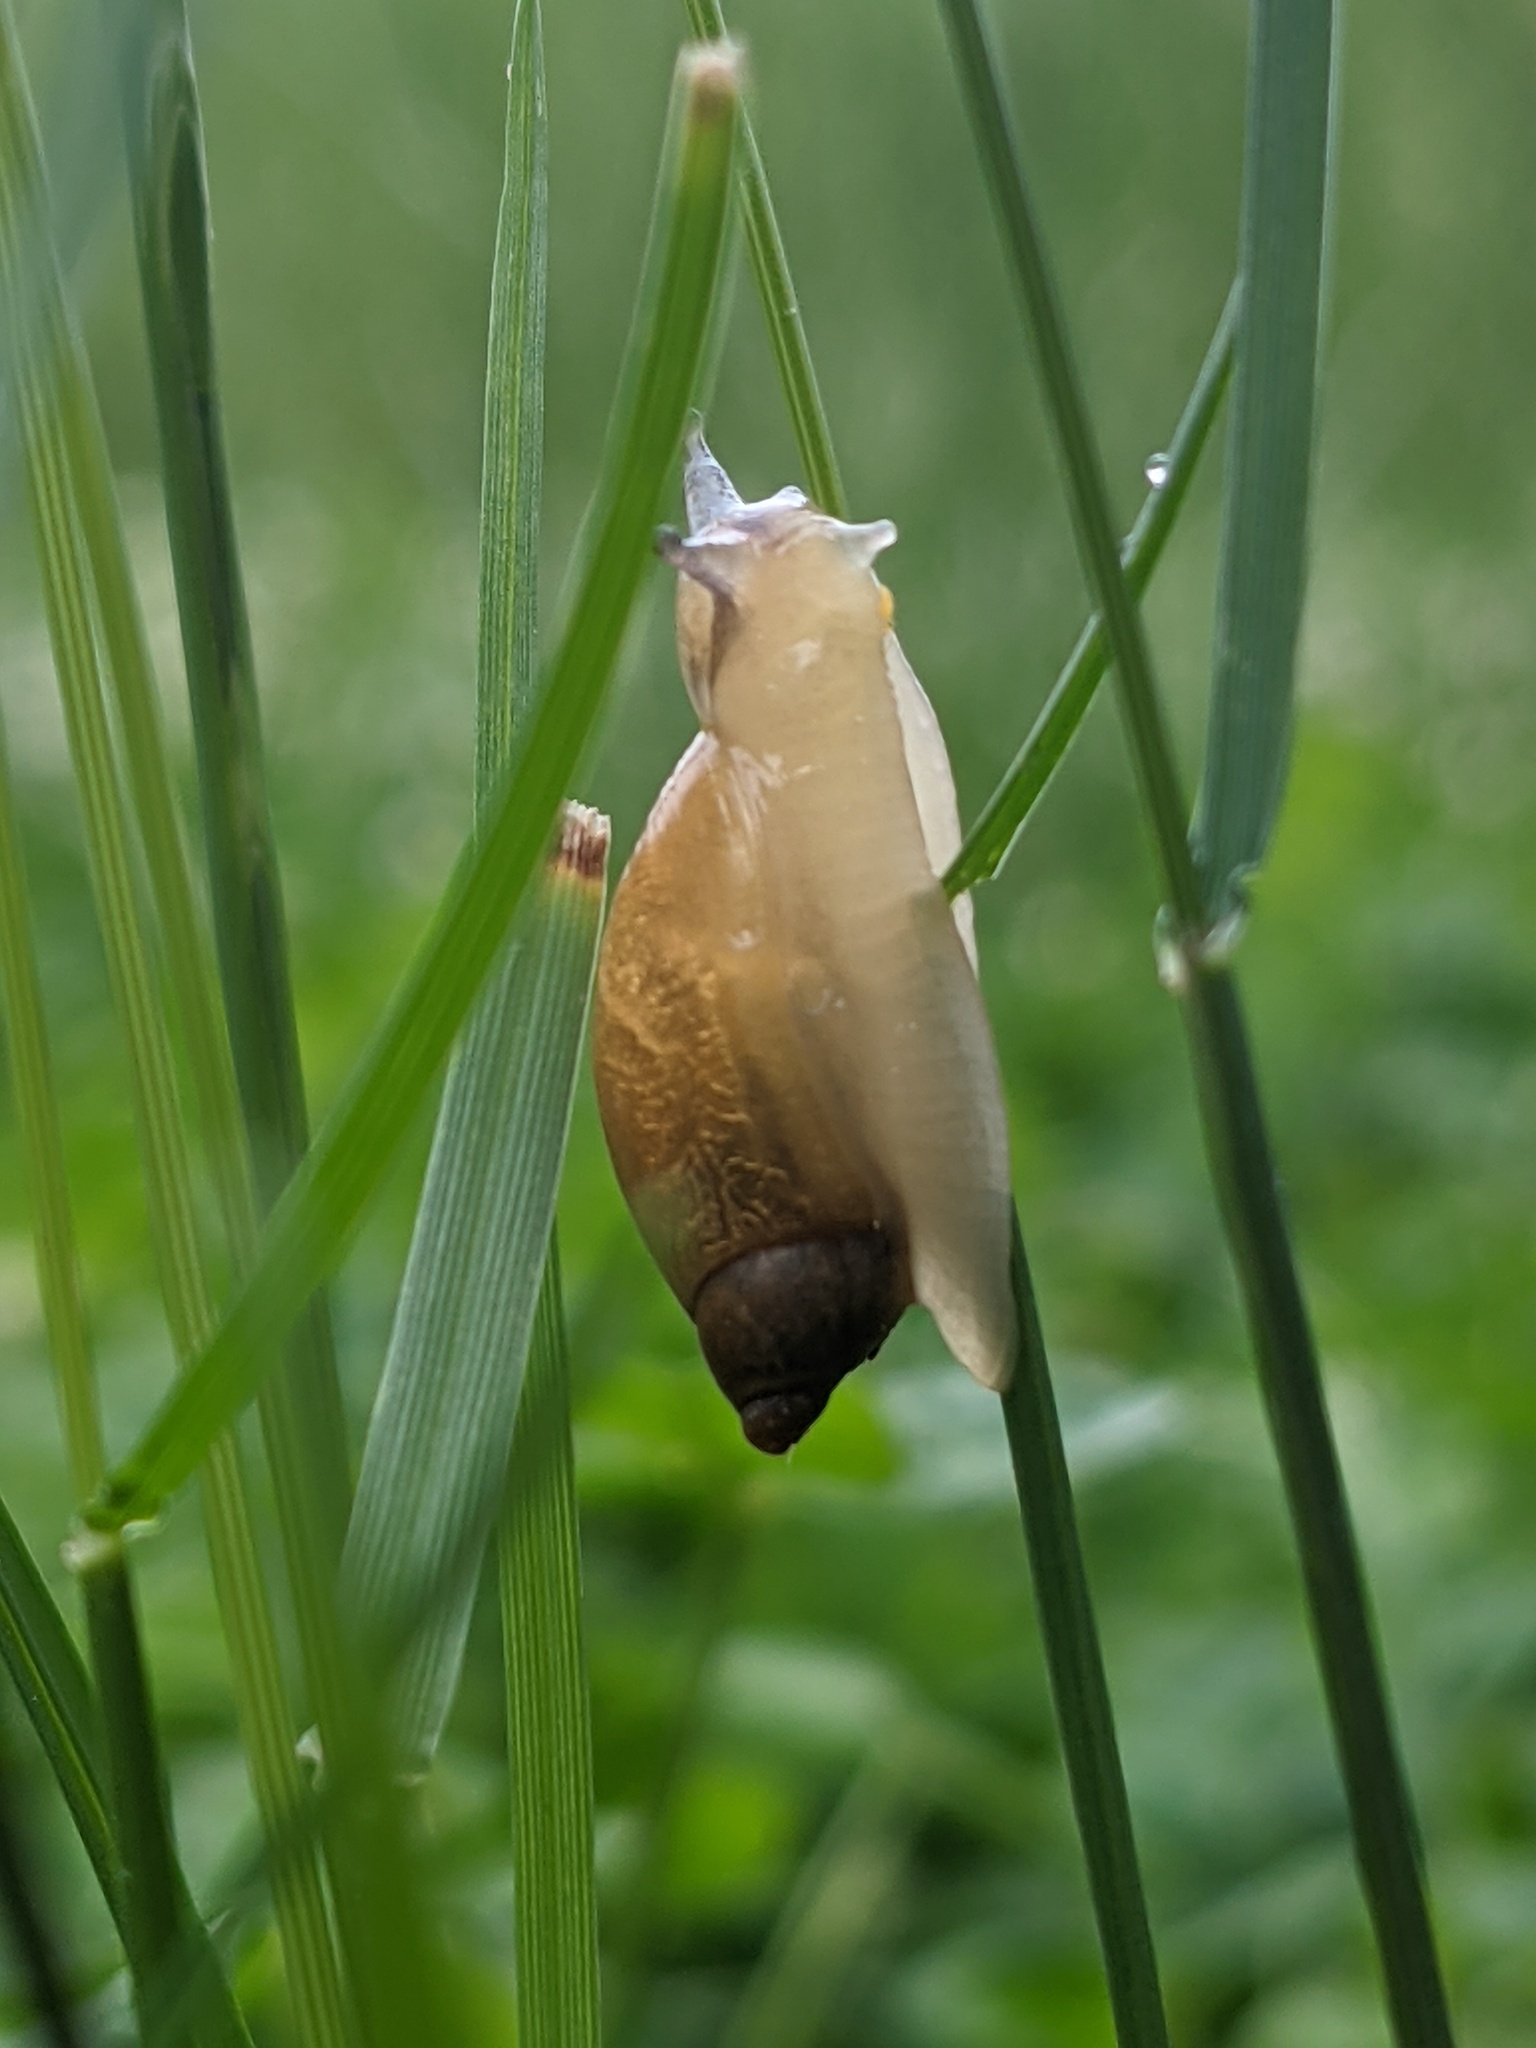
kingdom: Animalia
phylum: Mollusca
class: Gastropoda
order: Stylommatophora
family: Succineidae
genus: Succinea
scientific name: Succinea putris
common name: European ambersnail
